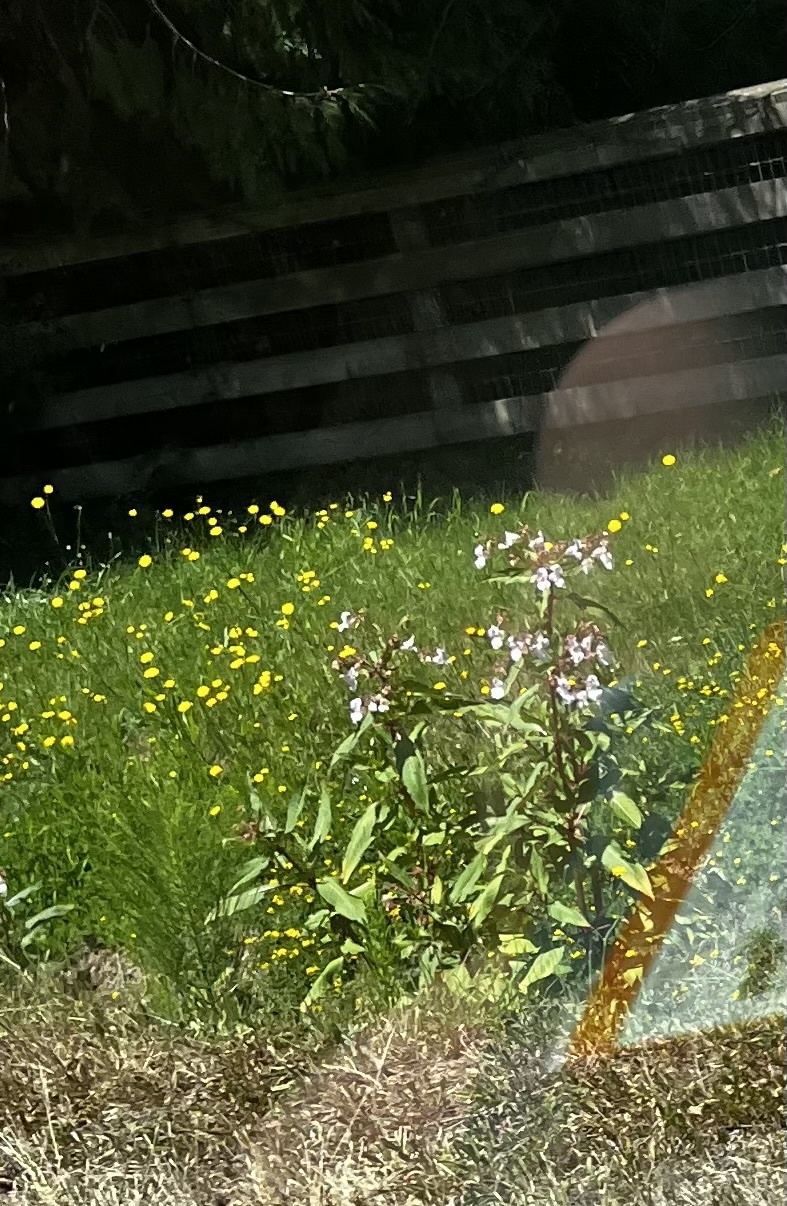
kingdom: Plantae
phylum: Tracheophyta
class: Magnoliopsida
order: Ericales
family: Balsaminaceae
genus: Impatiens
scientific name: Impatiens glandulifera
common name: Himalayan balsam
